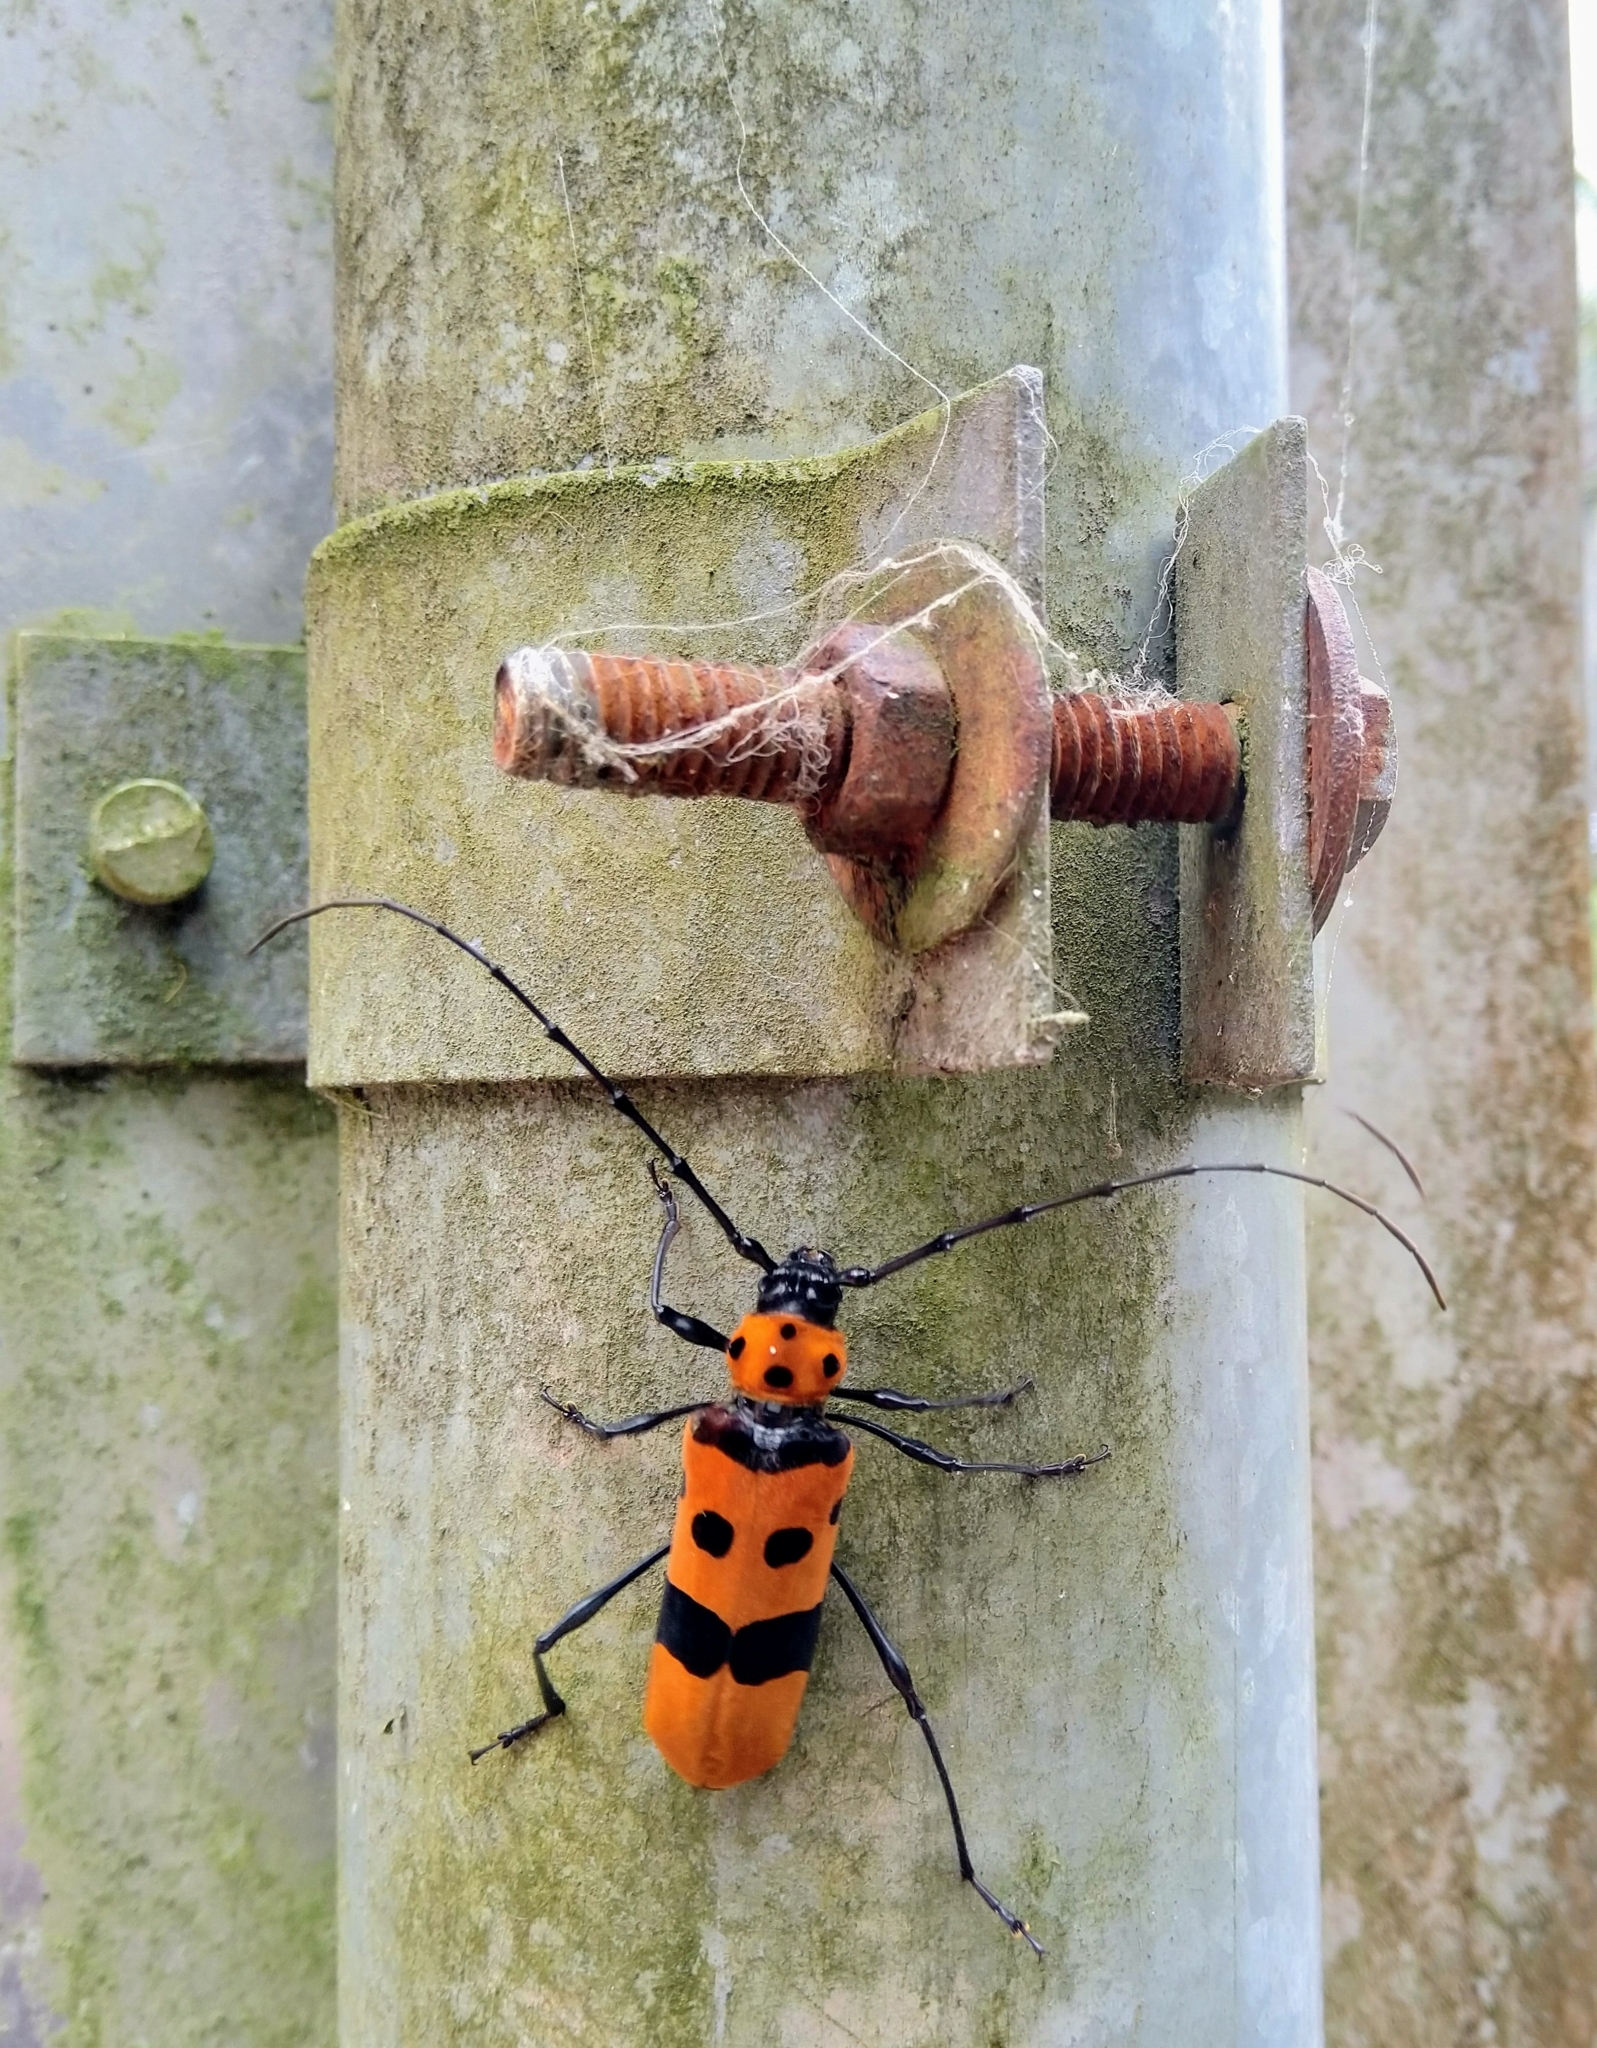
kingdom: Animalia
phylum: Arthropoda
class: Insecta
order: Coleoptera
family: Cerambycidae
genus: Rosalia
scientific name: Rosalia formosa
